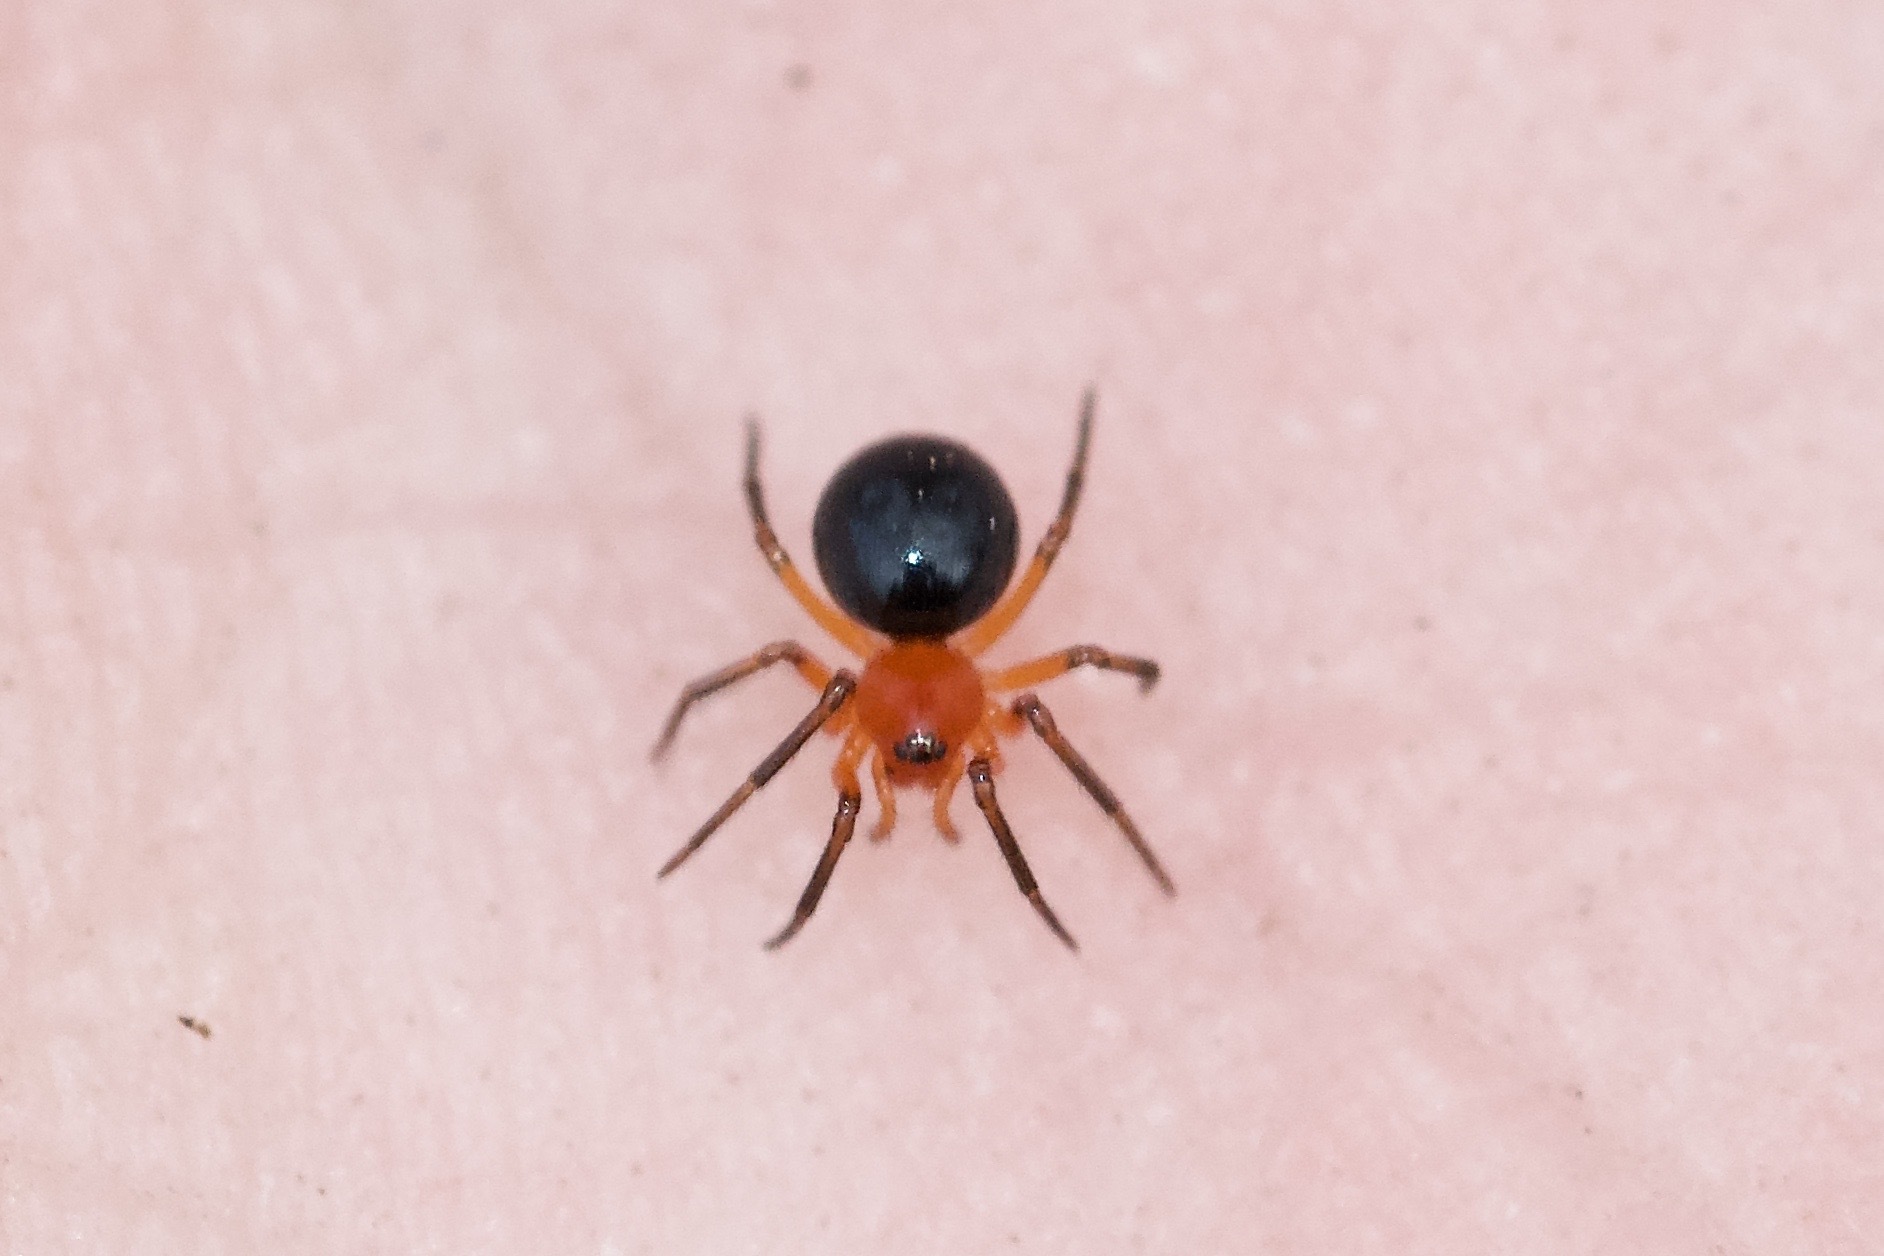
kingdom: Animalia
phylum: Arthropoda
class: Arachnida
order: Araneae
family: Linyphiidae
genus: Hypselistes
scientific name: Hypselistes florens
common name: Peatland sheetweb weaver
